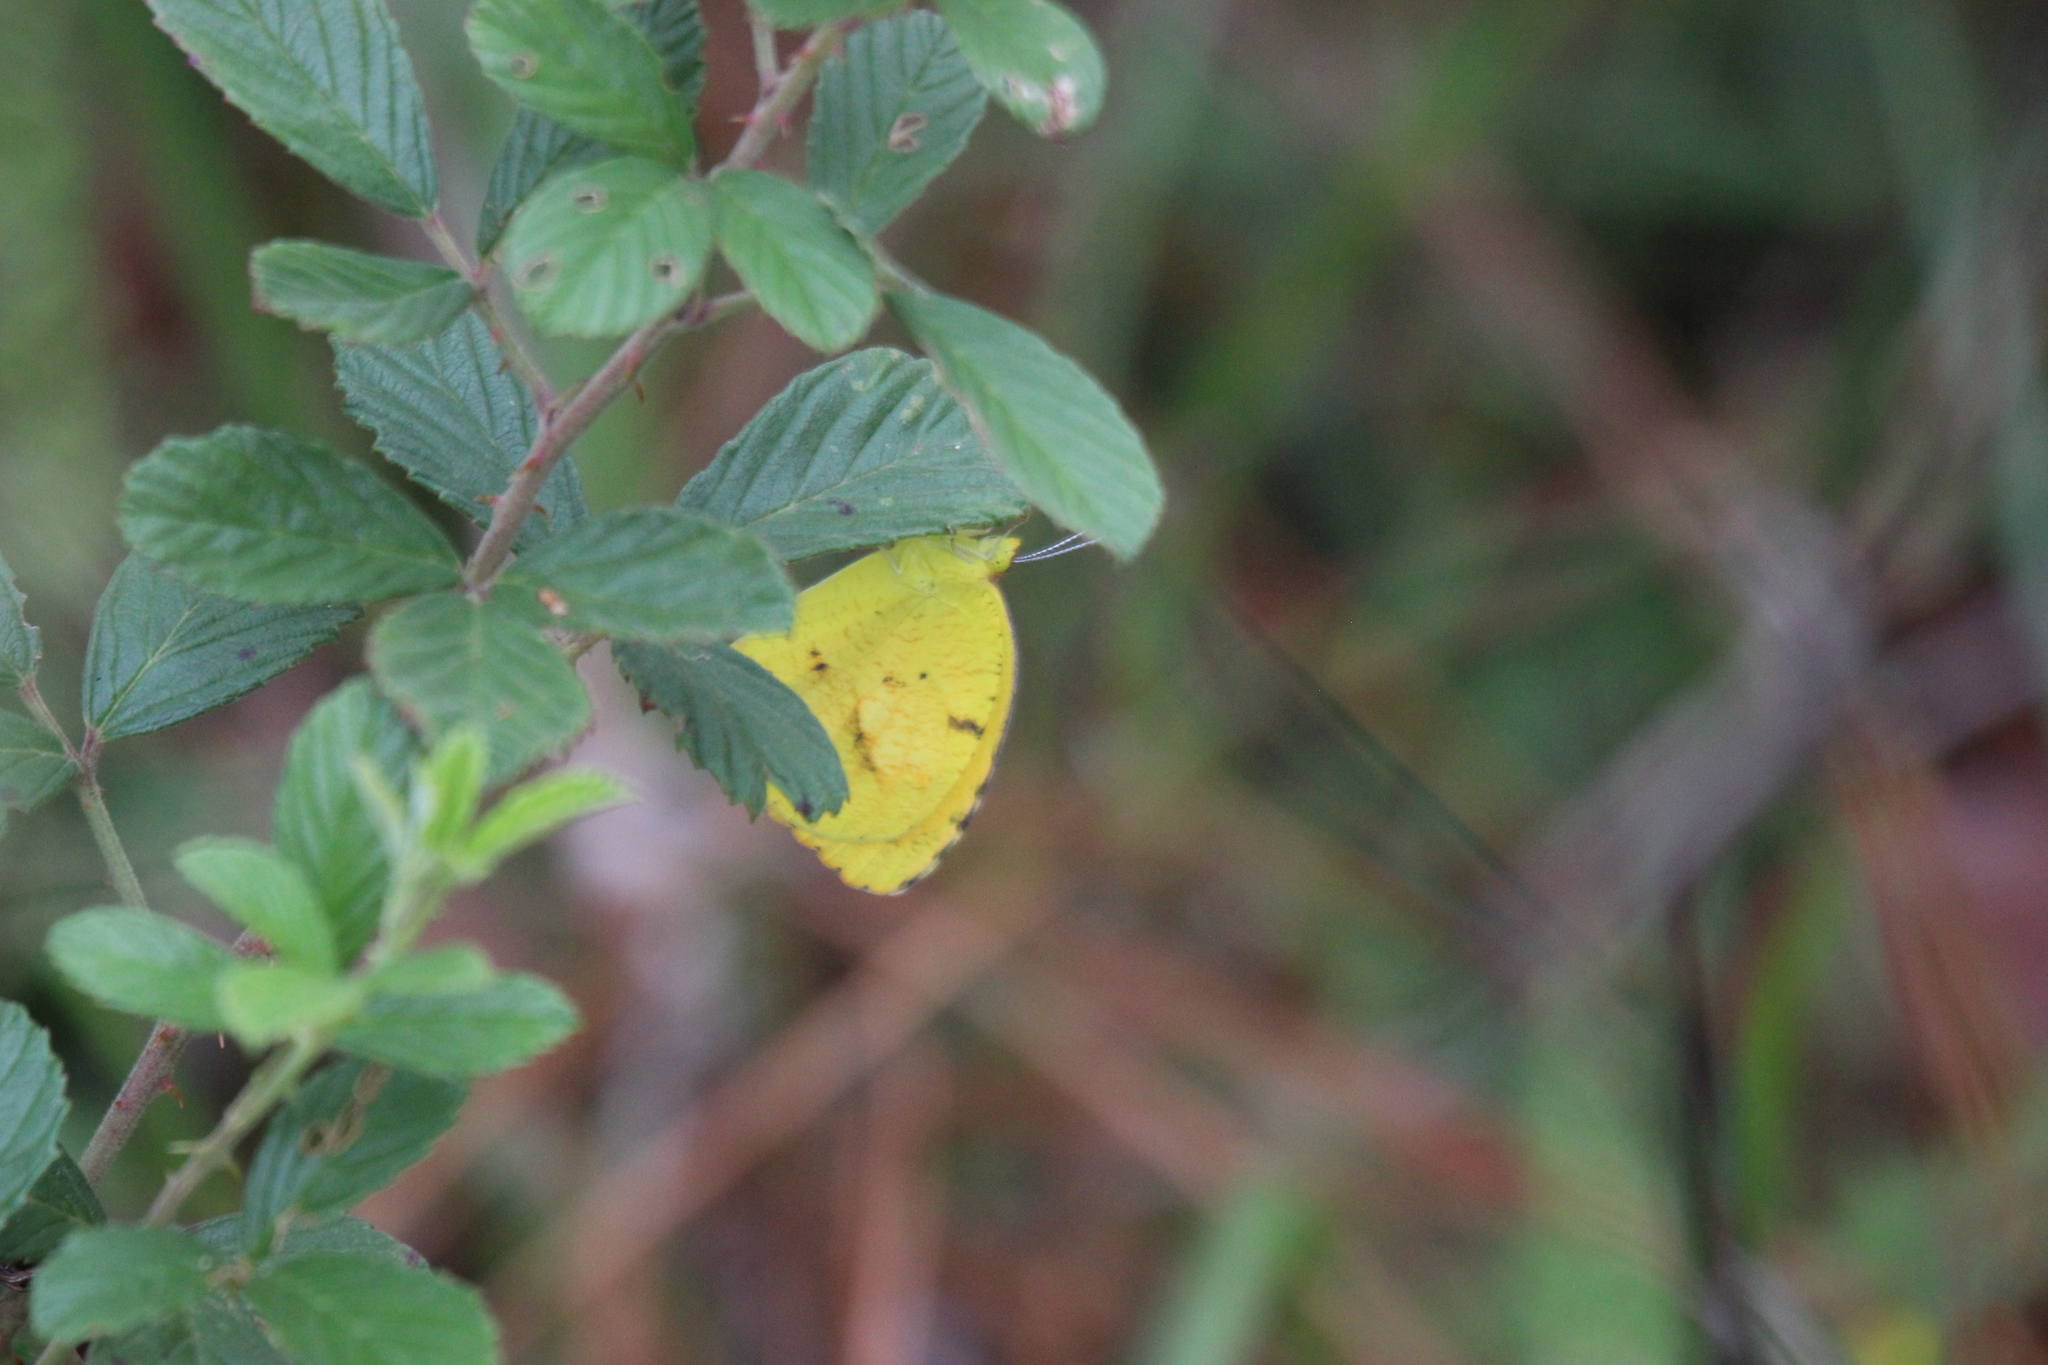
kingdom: Animalia
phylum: Arthropoda
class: Insecta
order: Lepidoptera
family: Pieridae
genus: Abaeis
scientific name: Abaeis nicippe
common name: Sleepy orange
